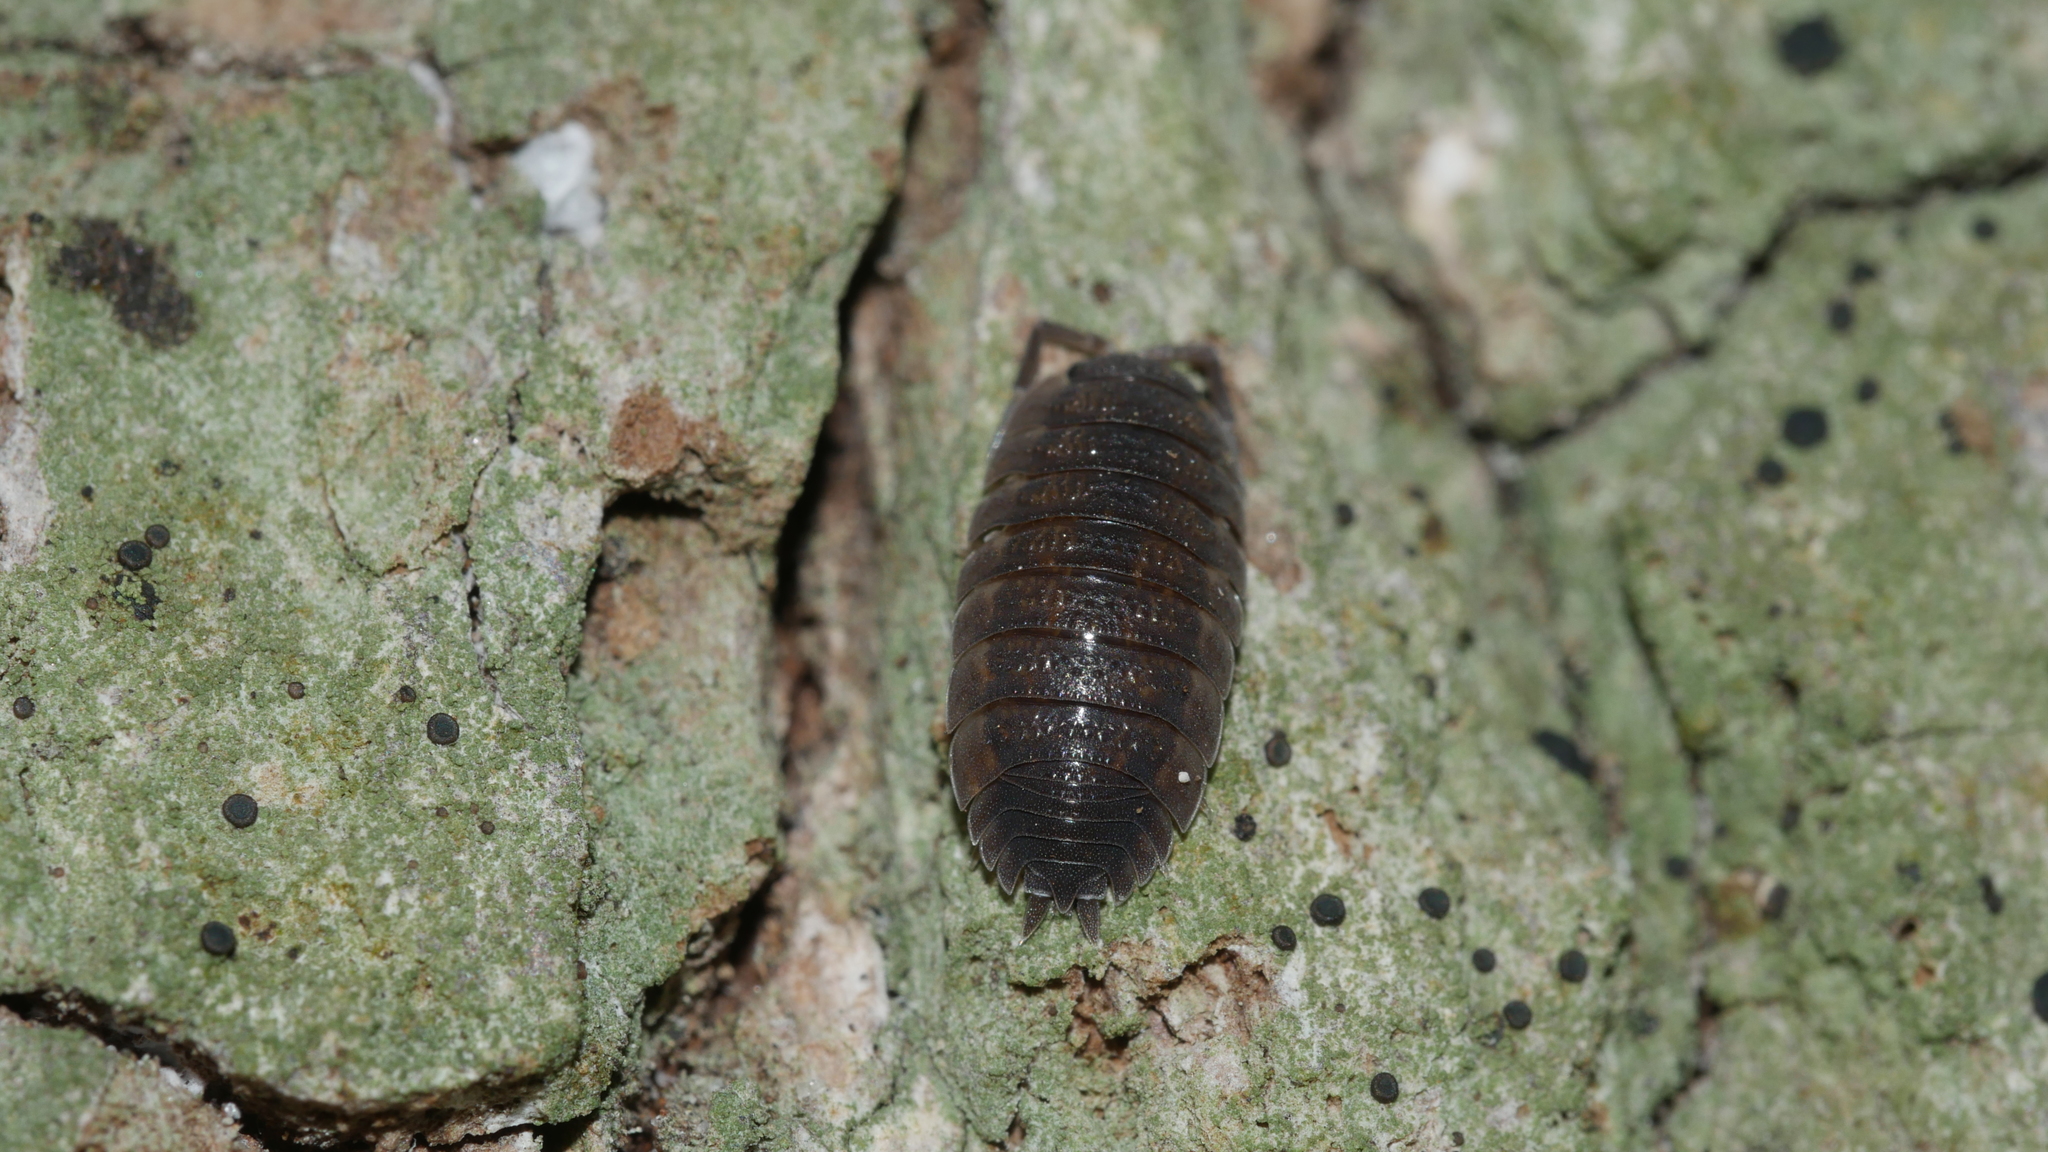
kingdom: Animalia
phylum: Arthropoda
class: Malacostraca
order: Isopoda
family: Porcellionidae
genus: Porcellio
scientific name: Porcellio scaber
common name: Common rough woodlouse
